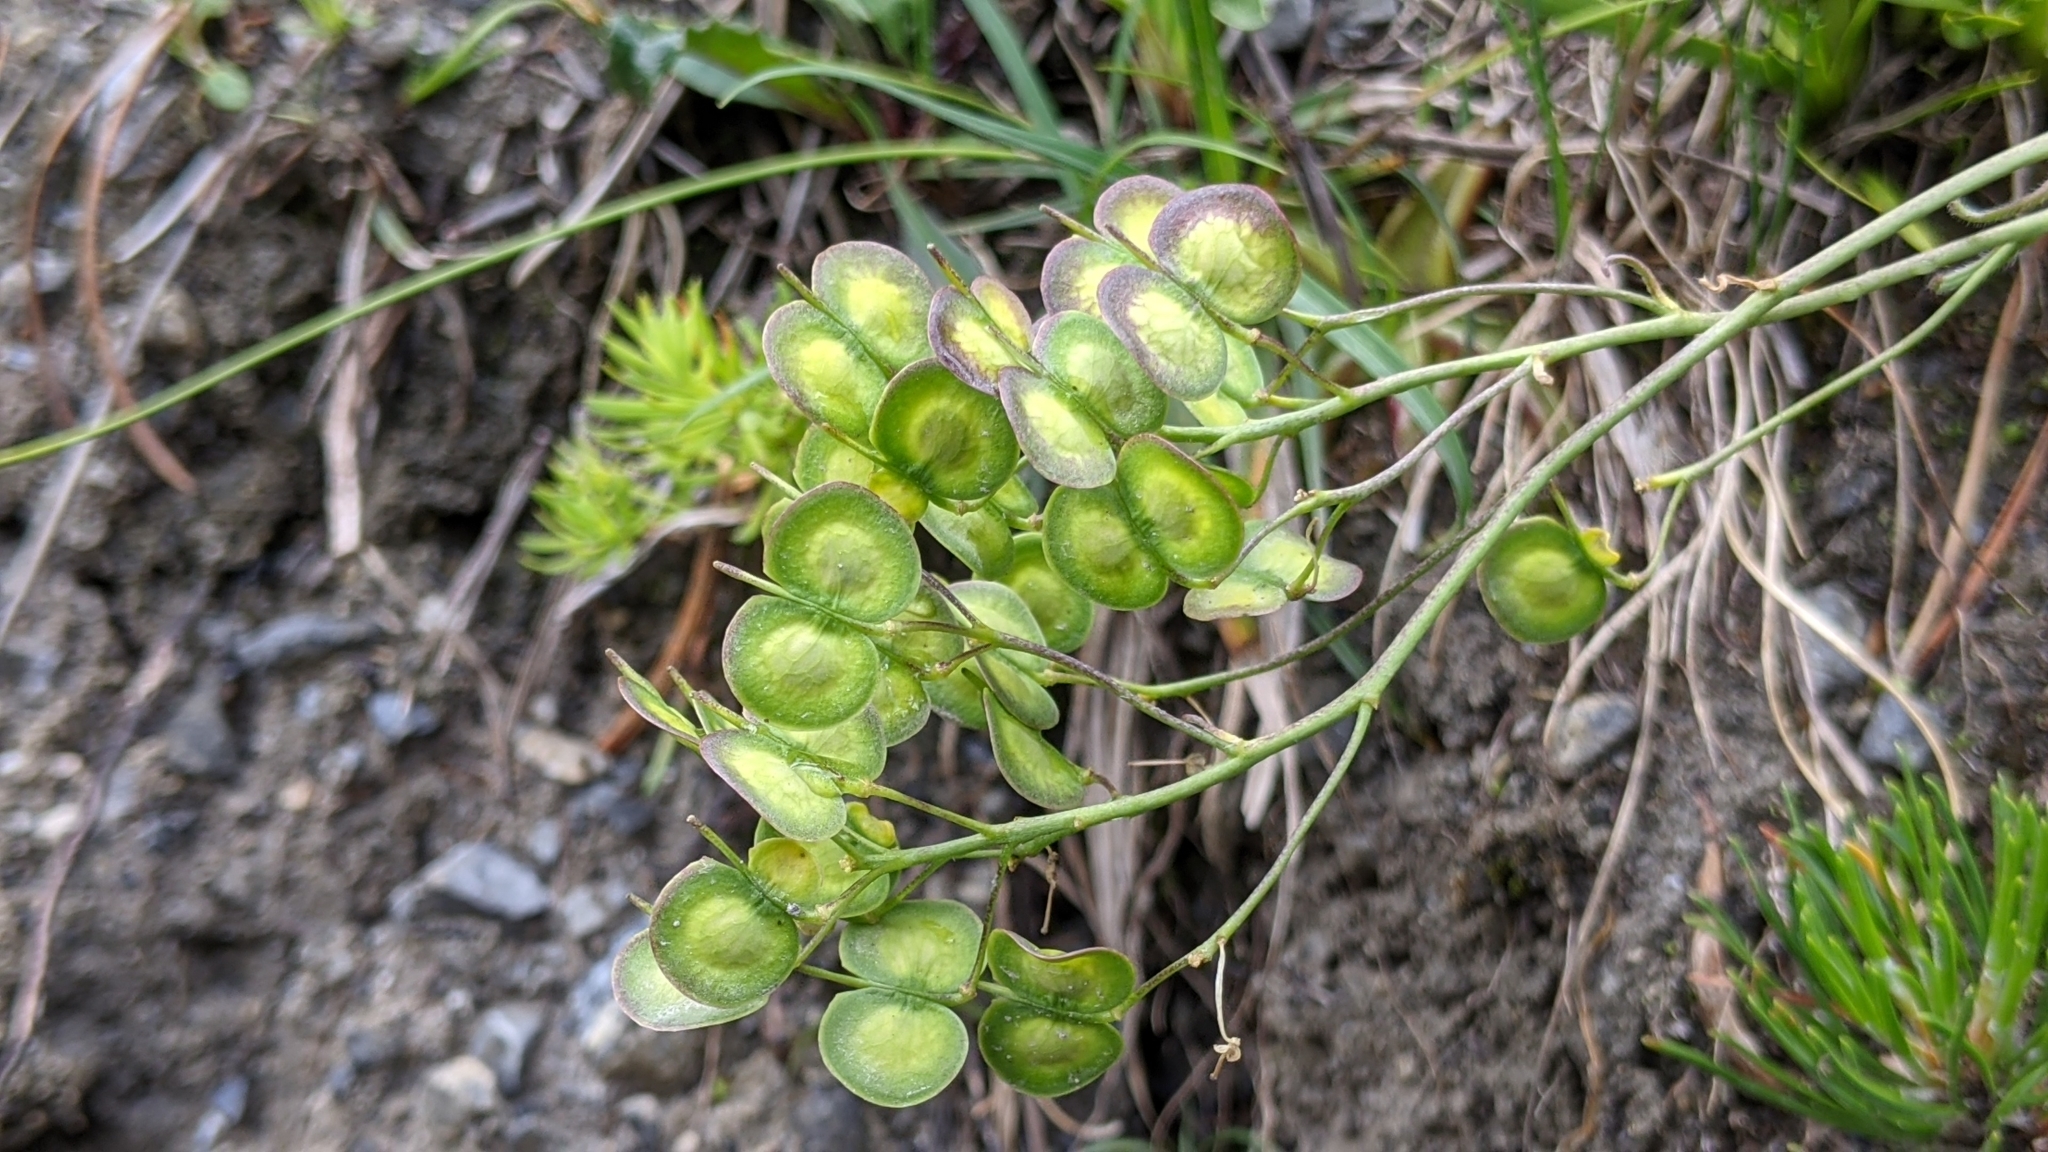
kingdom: Plantae
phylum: Tracheophyta
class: Magnoliopsida
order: Brassicales
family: Brassicaceae
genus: Biscutella
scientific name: Biscutella laevigata
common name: Buckler mustard
